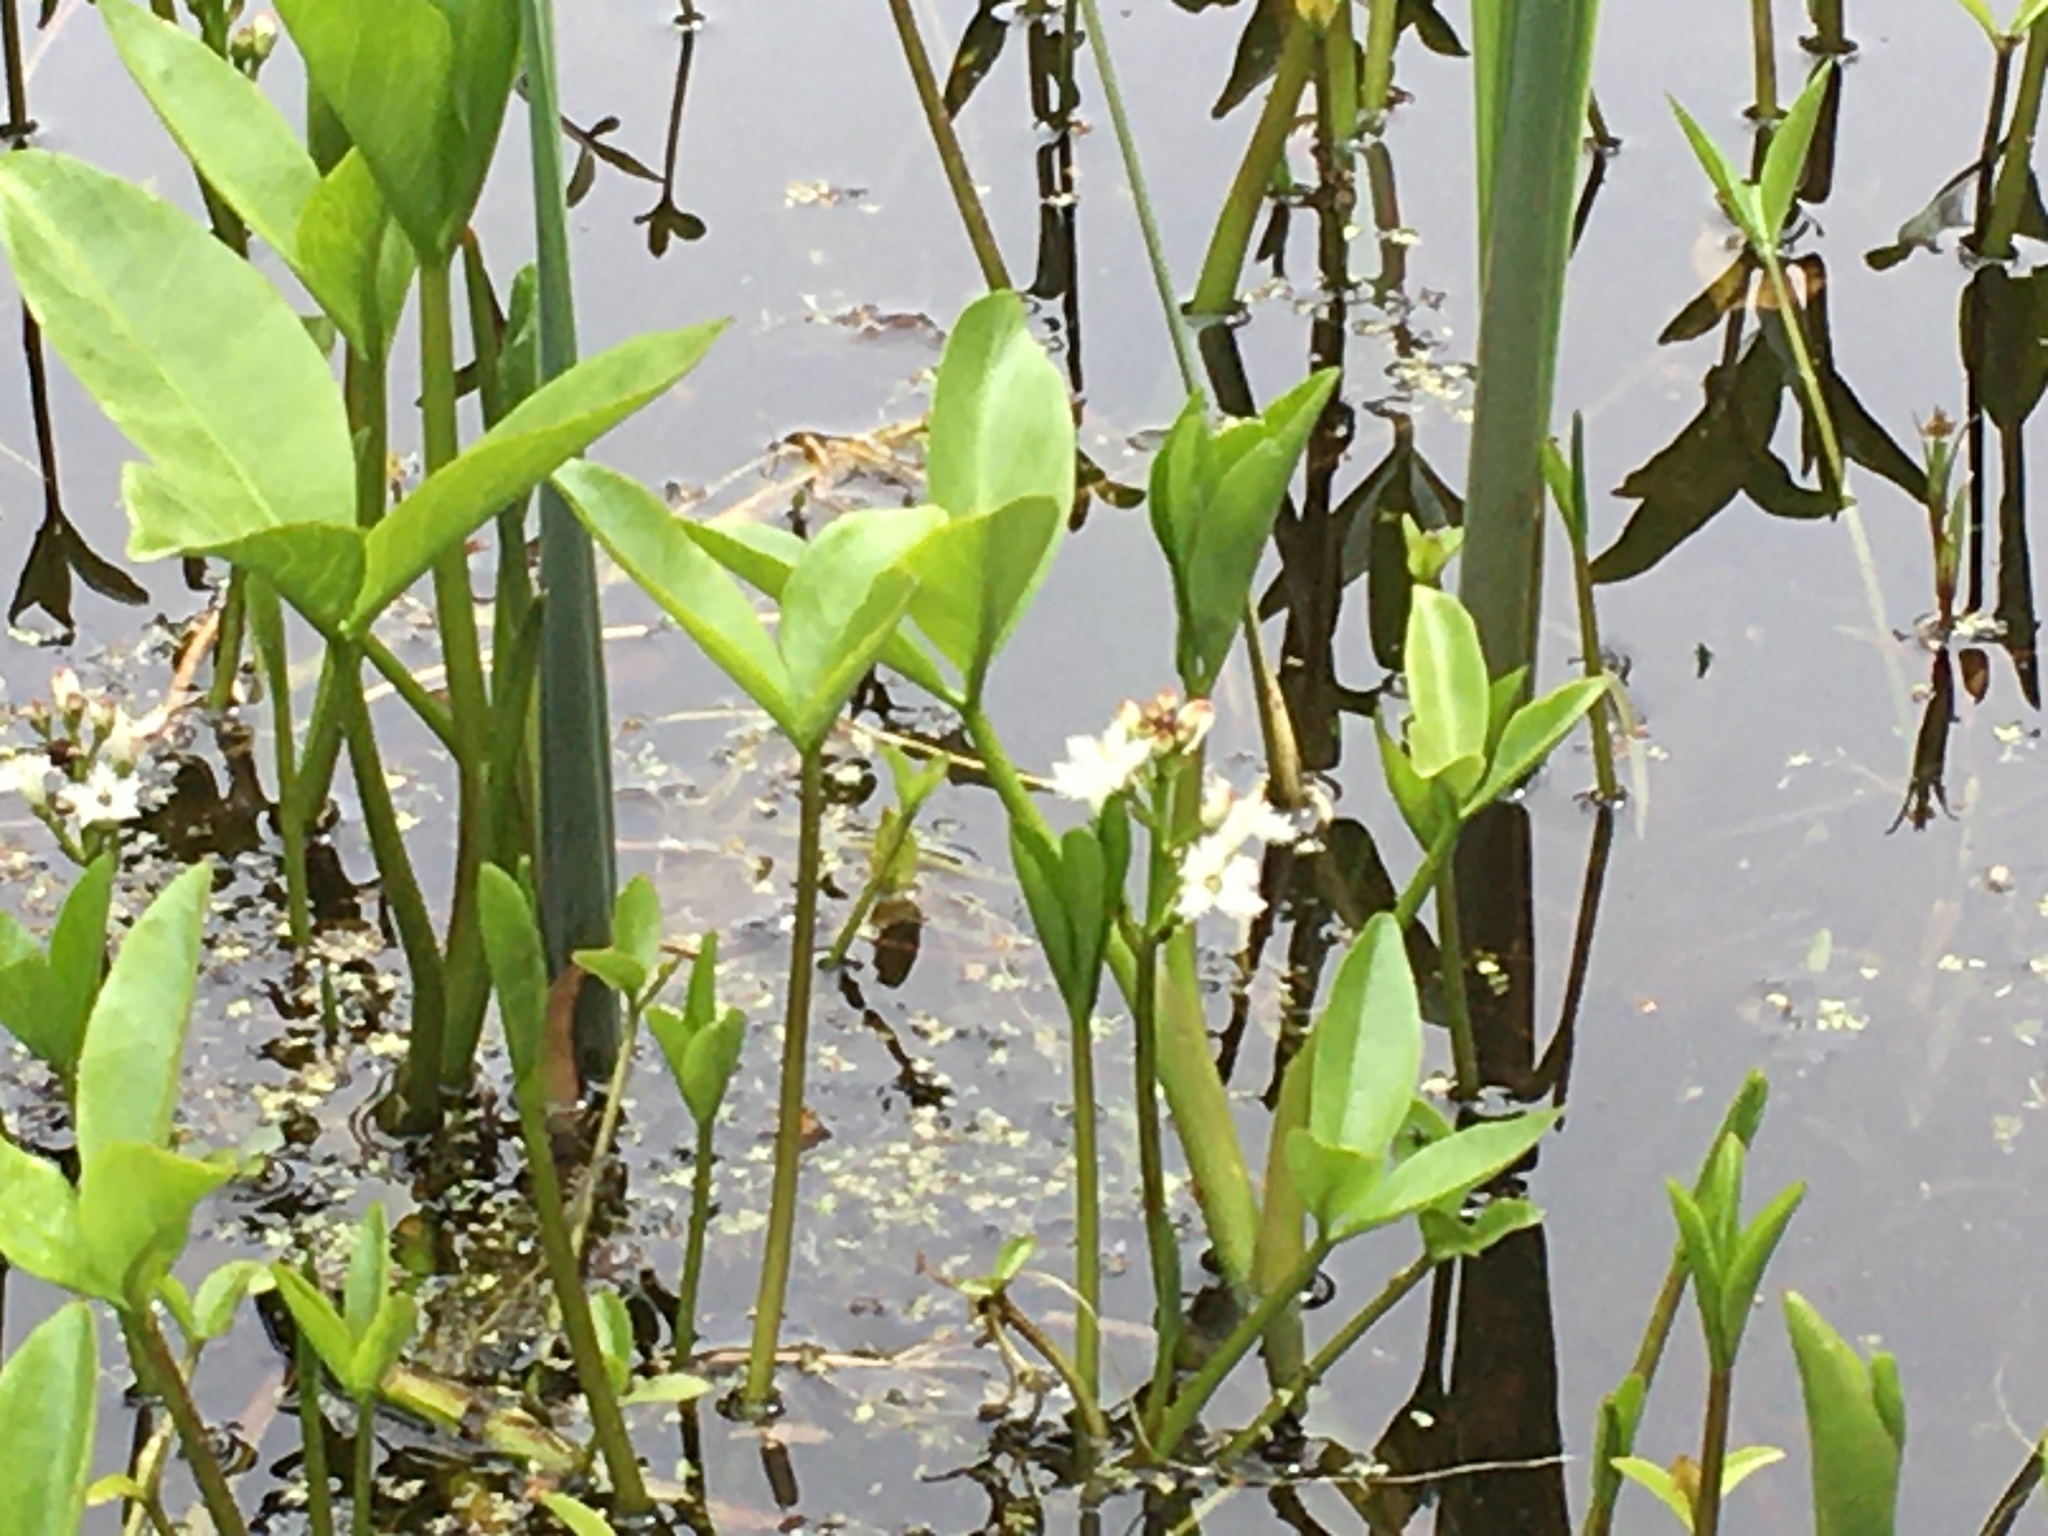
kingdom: Plantae
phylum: Tracheophyta
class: Magnoliopsida
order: Asterales
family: Menyanthaceae
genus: Menyanthes
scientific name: Menyanthes trifoliata
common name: Bogbean
